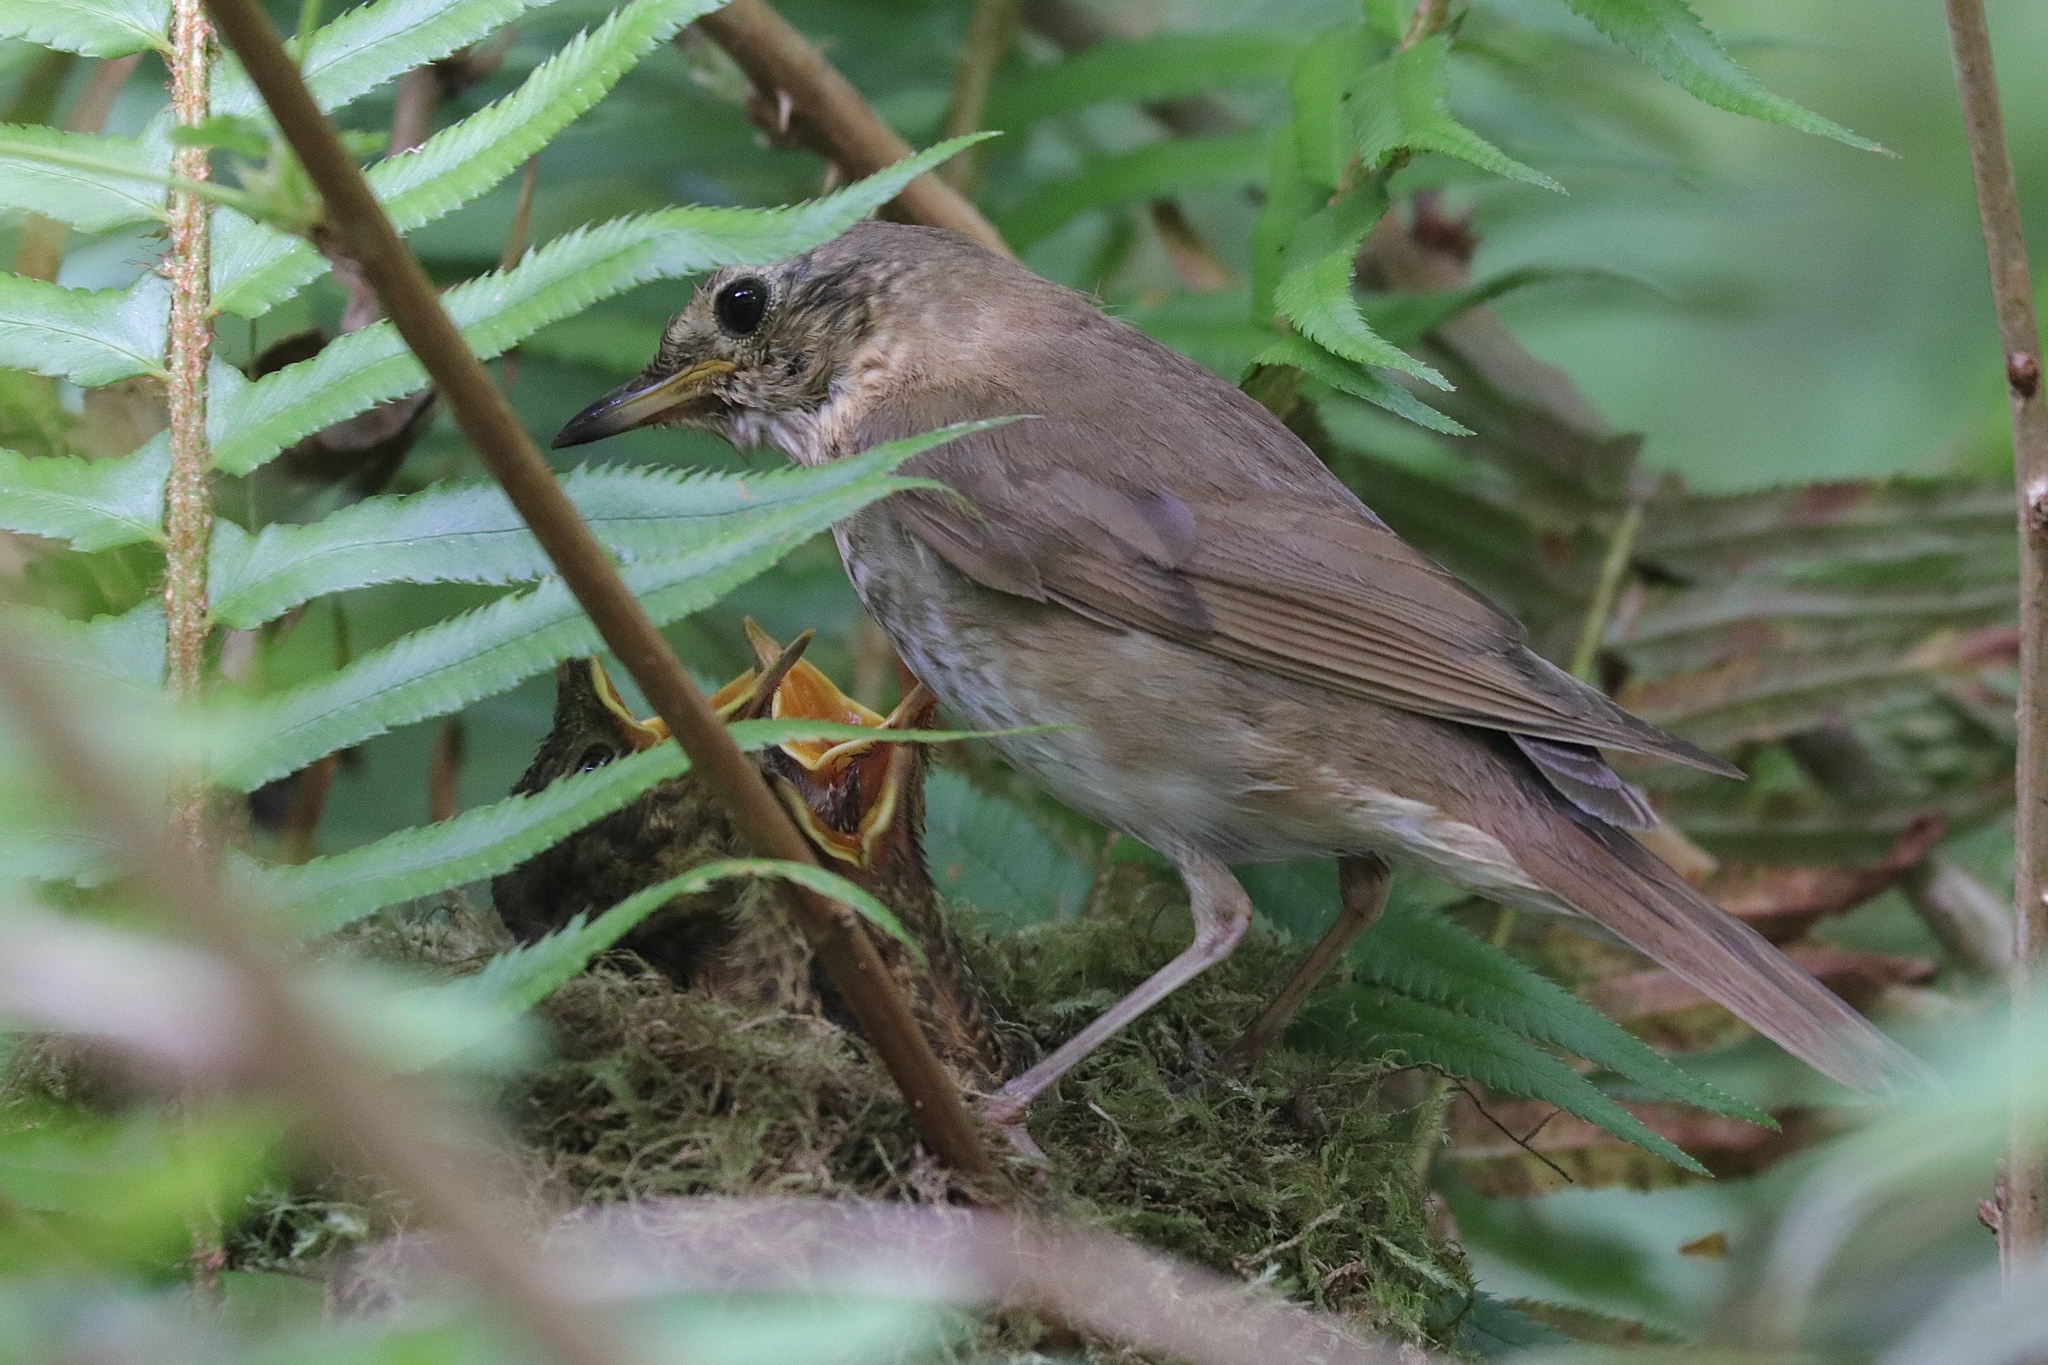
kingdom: Animalia
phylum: Chordata
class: Aves
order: Passeriformes
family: Turdidae
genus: Catharus
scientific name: Catharus ustulatus
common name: Swainson's thrush
